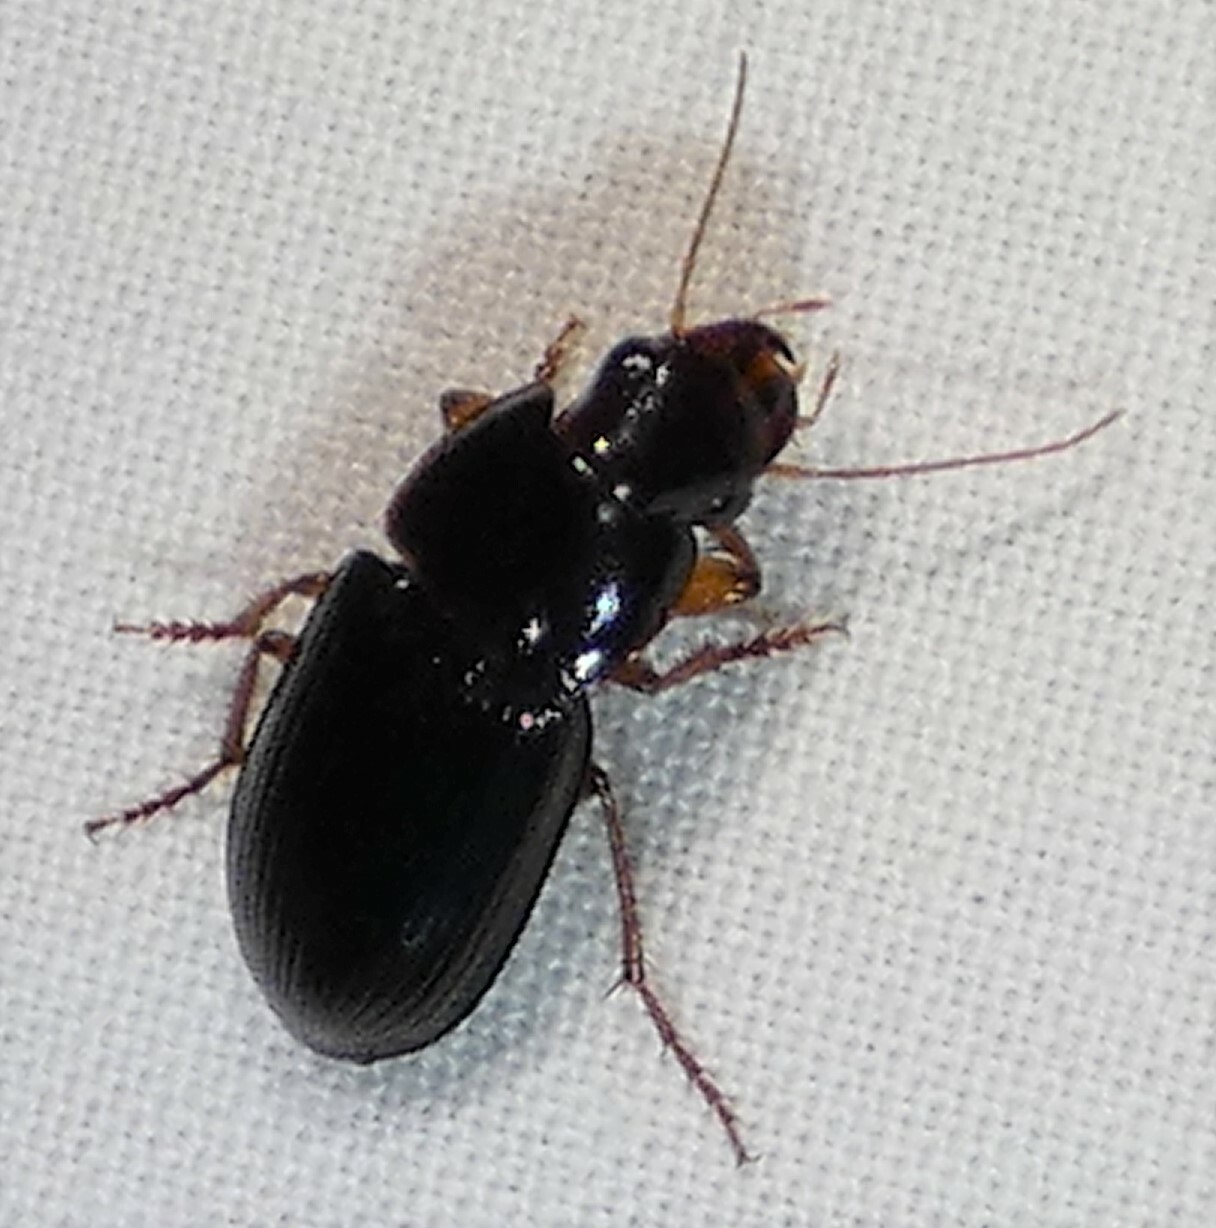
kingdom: Animalia
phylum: Arthropoda
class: Insecta
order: Coleoptera
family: Carabidae
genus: Selenophorus
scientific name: Selenophorus opalinus
